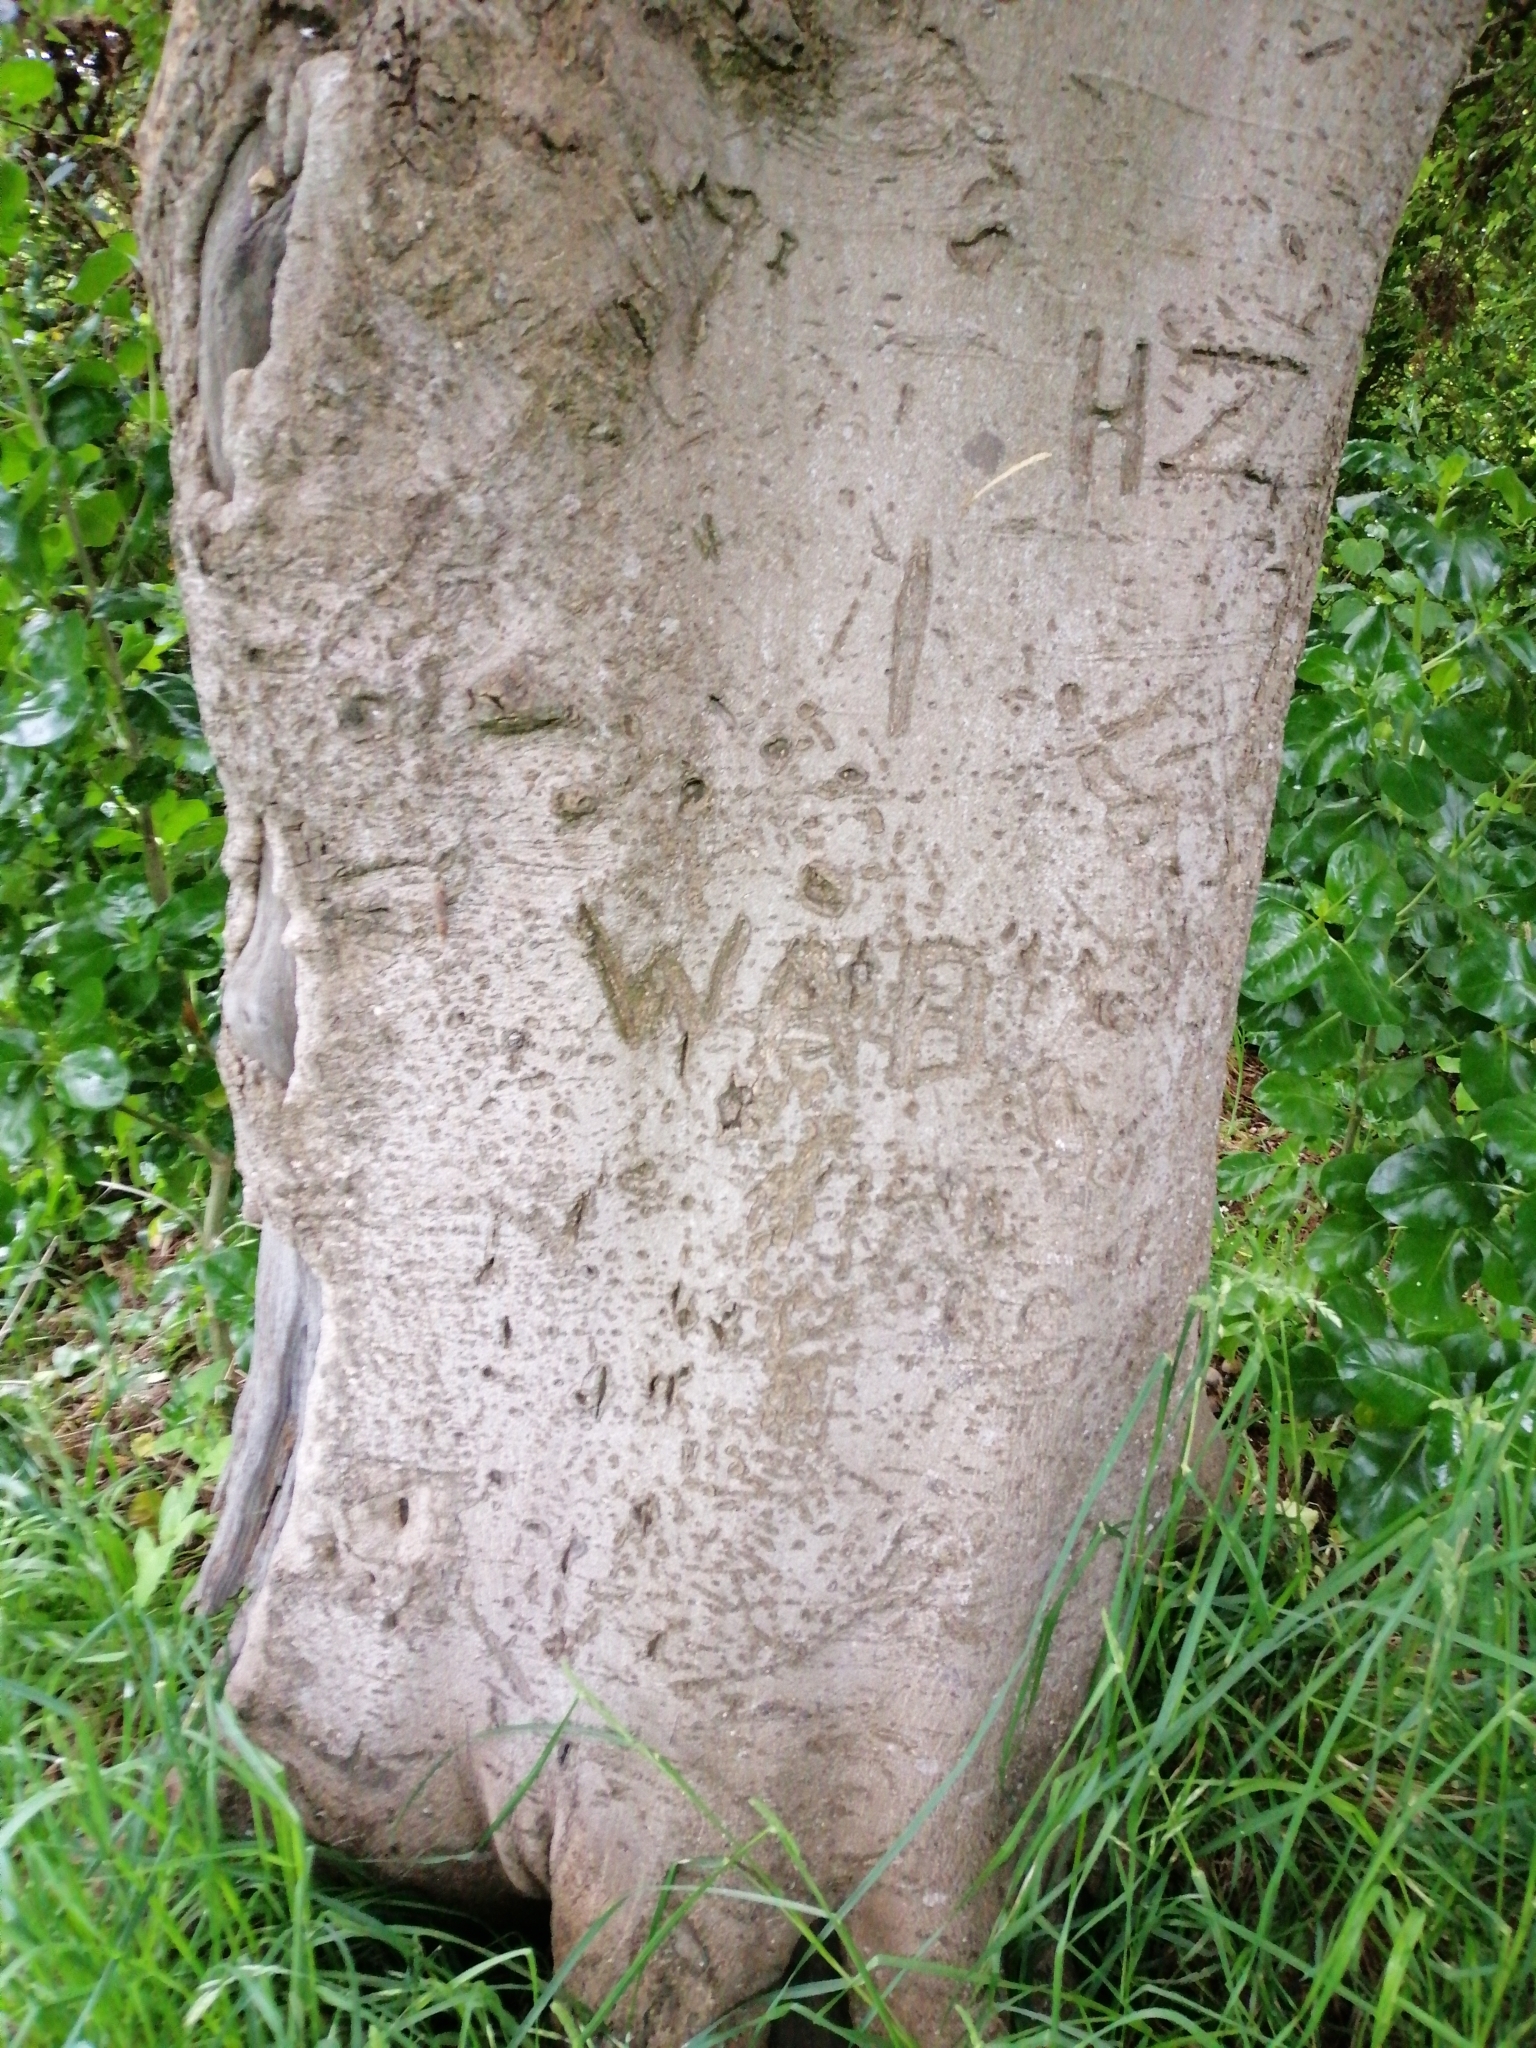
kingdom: Plantae
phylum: Tracheophyta
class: Magnoliopsida
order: Rosales
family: Moraceae
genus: Paratrophis
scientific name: Paratrophis banksii
